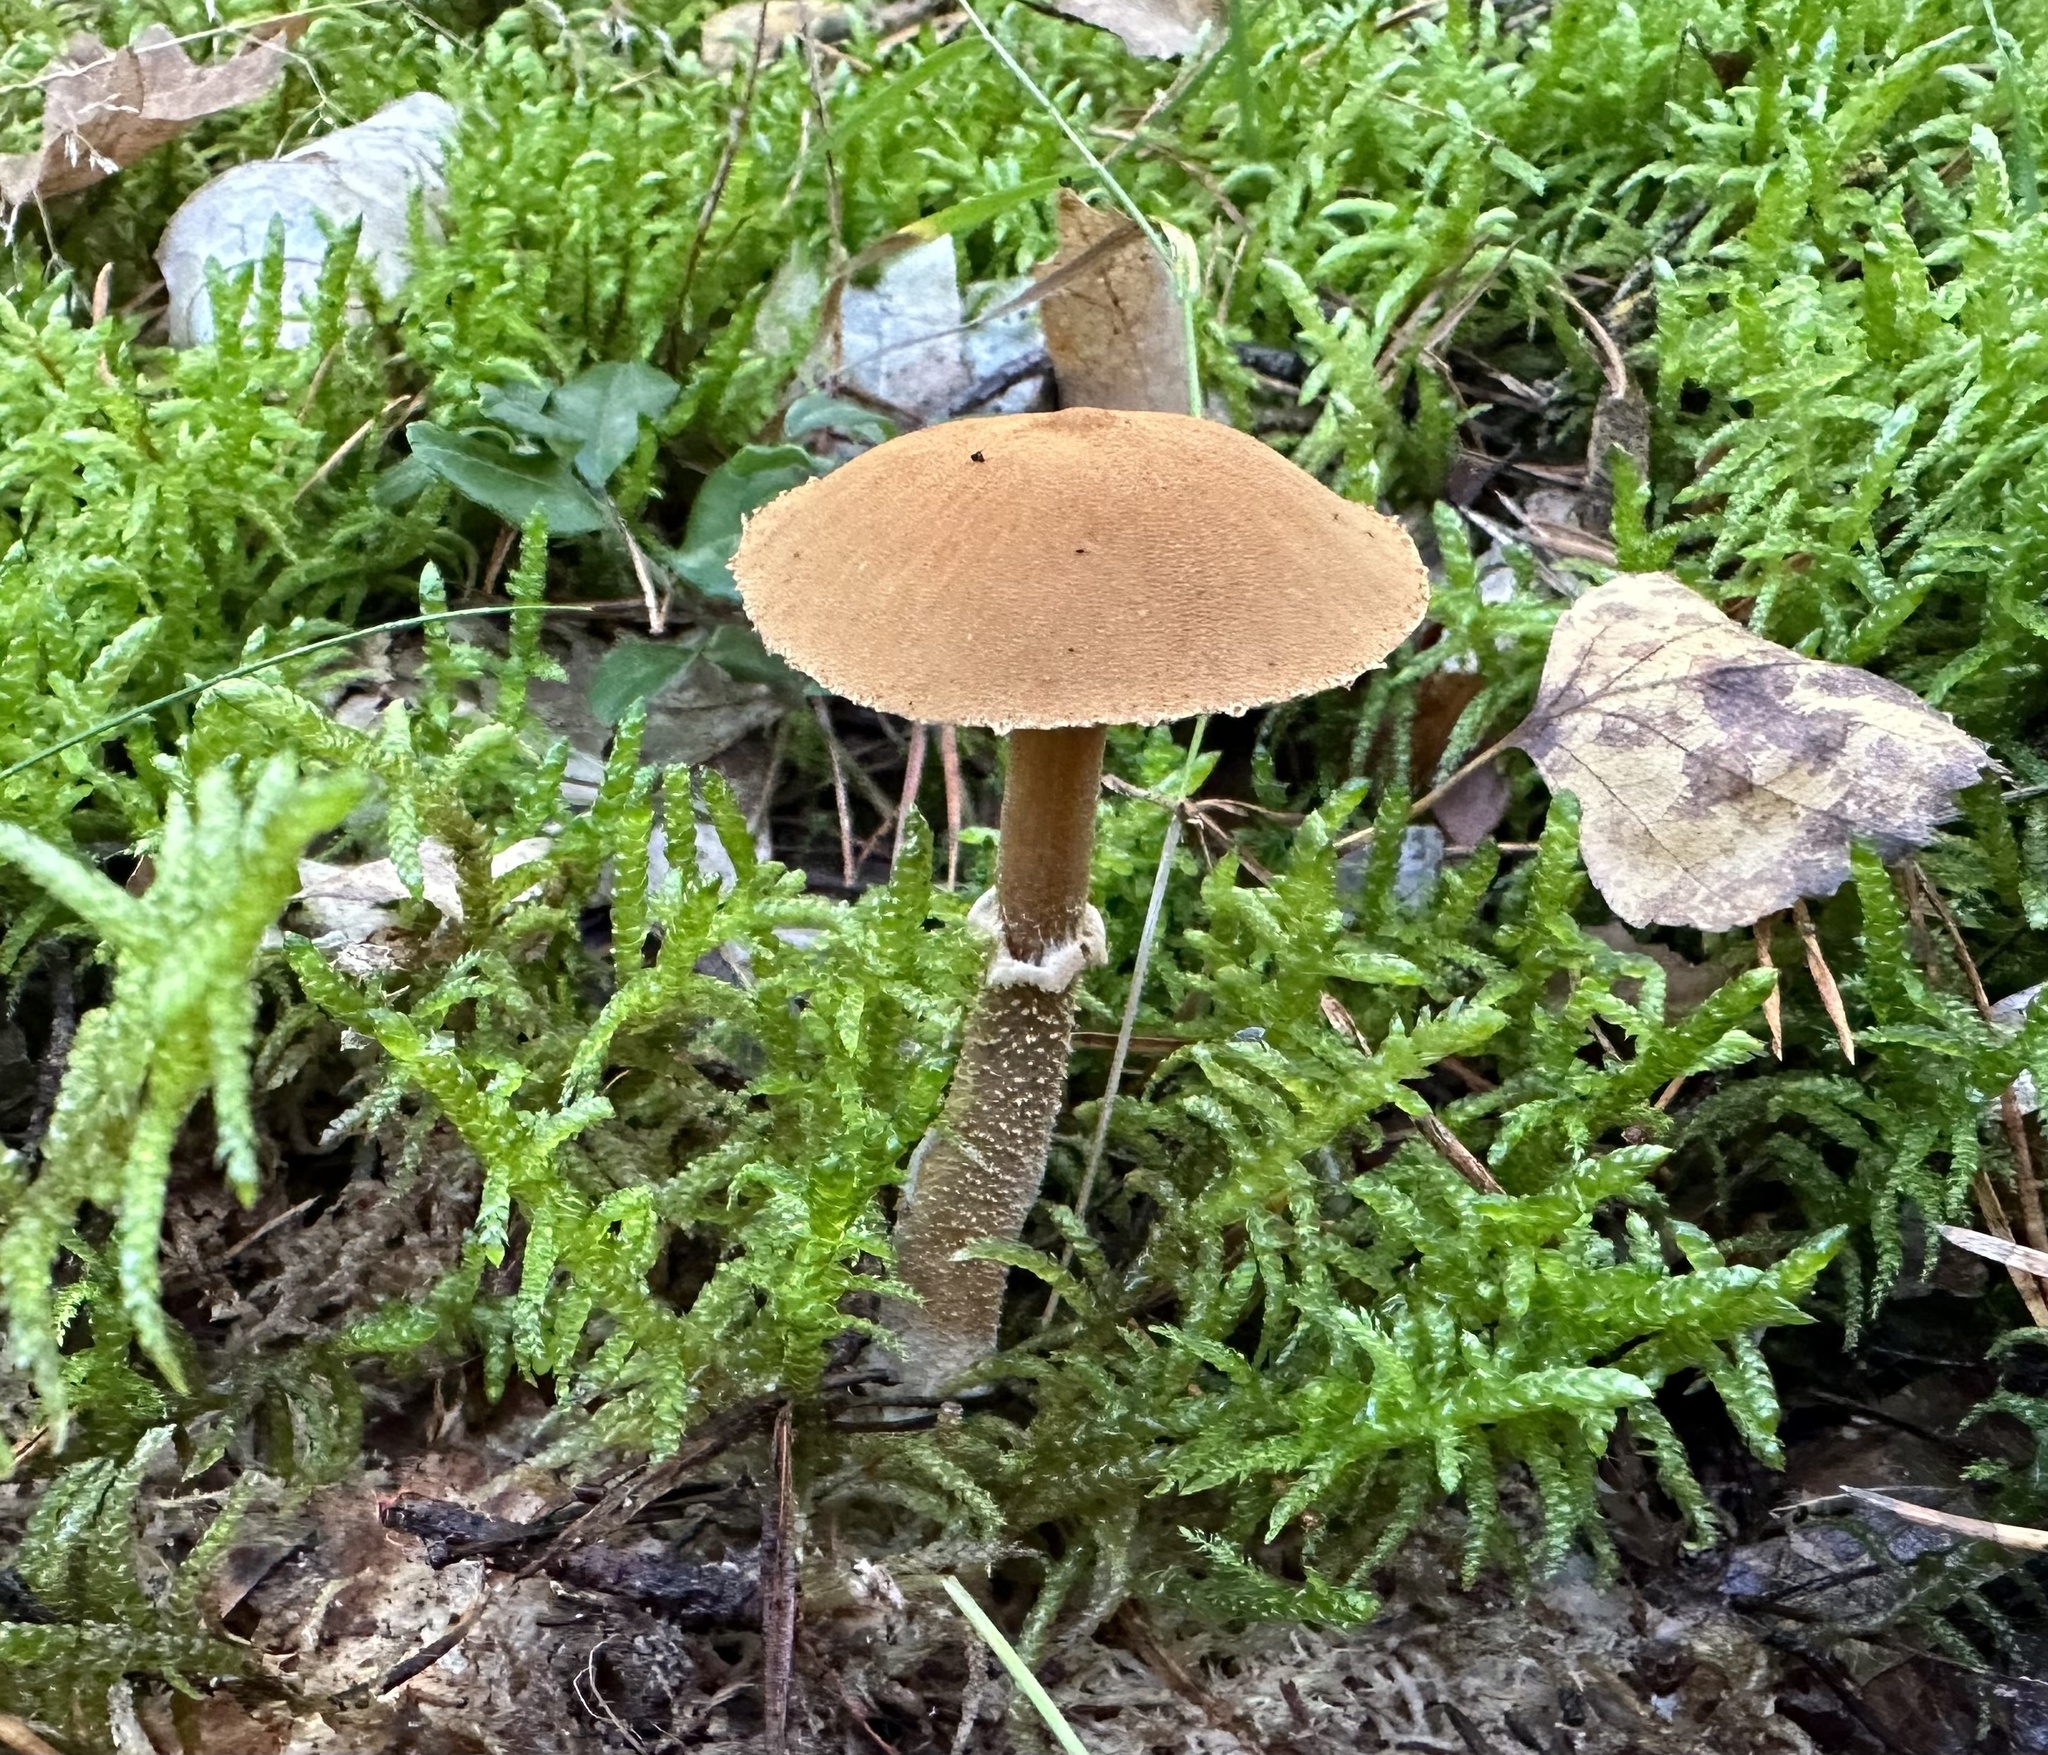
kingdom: Fungi
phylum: Basidiomycota
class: Agaricomycetes
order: Agaricales
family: Tricholomataceae
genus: Cystoderma
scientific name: Cystoderma amianthinum
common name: Earthy powdercap
